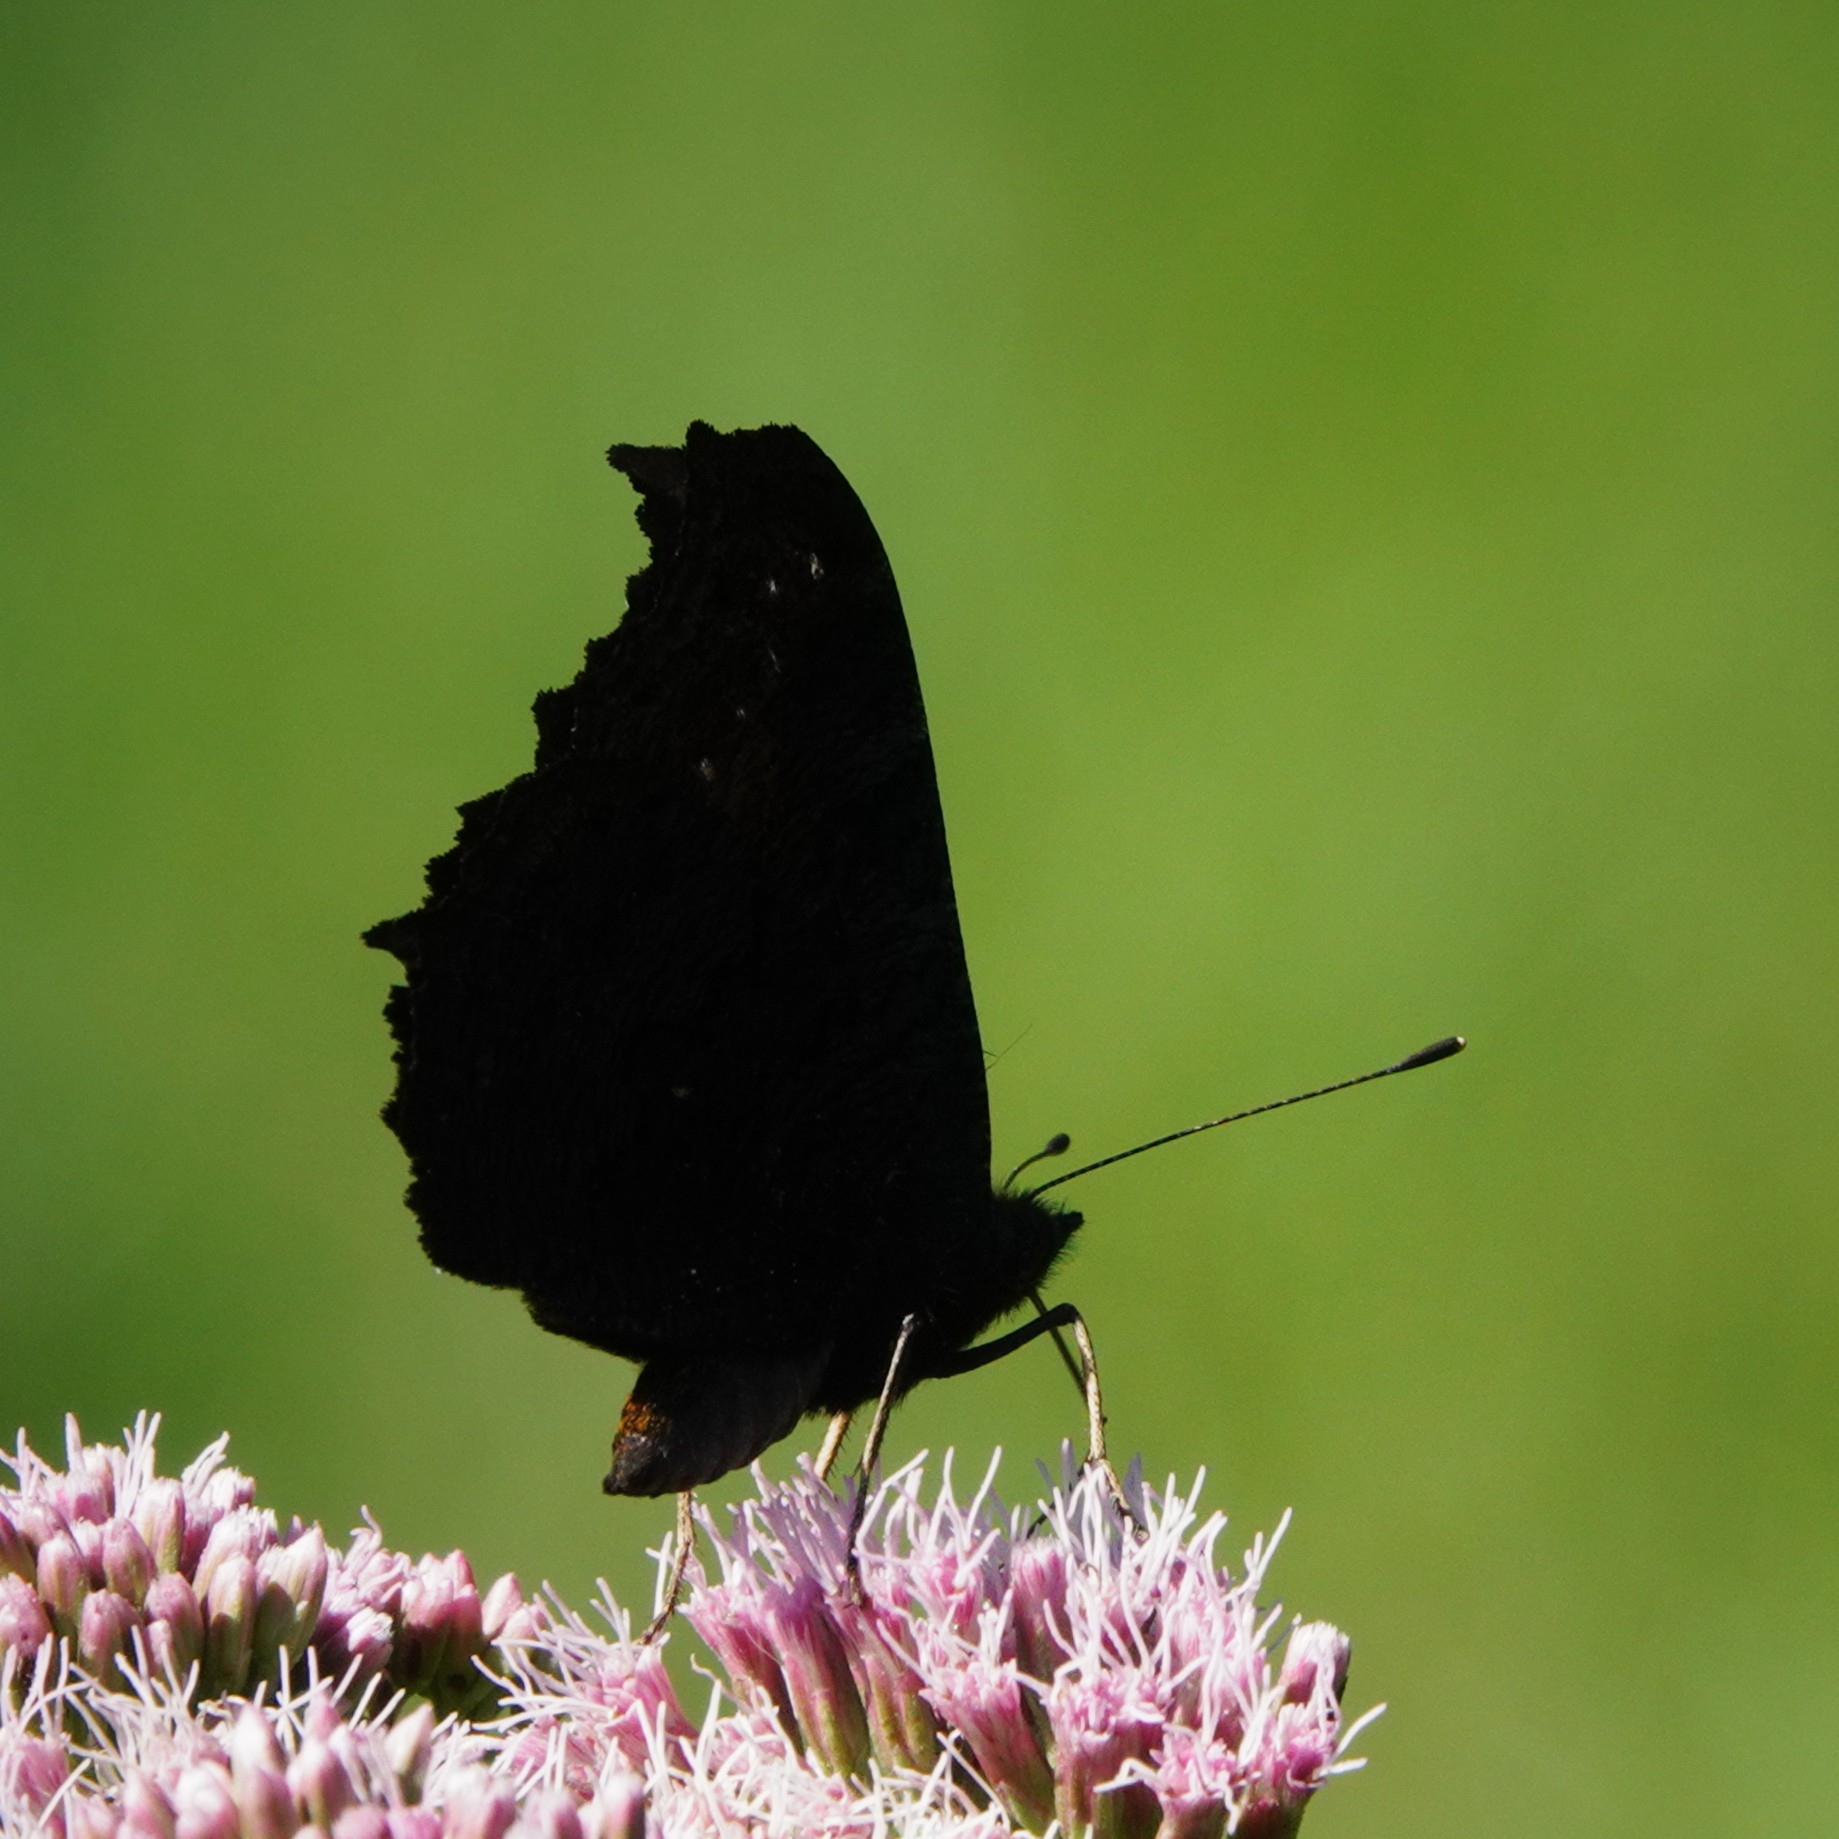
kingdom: Animalia
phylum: Arthropoda
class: Insecta
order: Lepidoptera
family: Nymphalidae
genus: Aglais
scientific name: Aglais io
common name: Peacock
